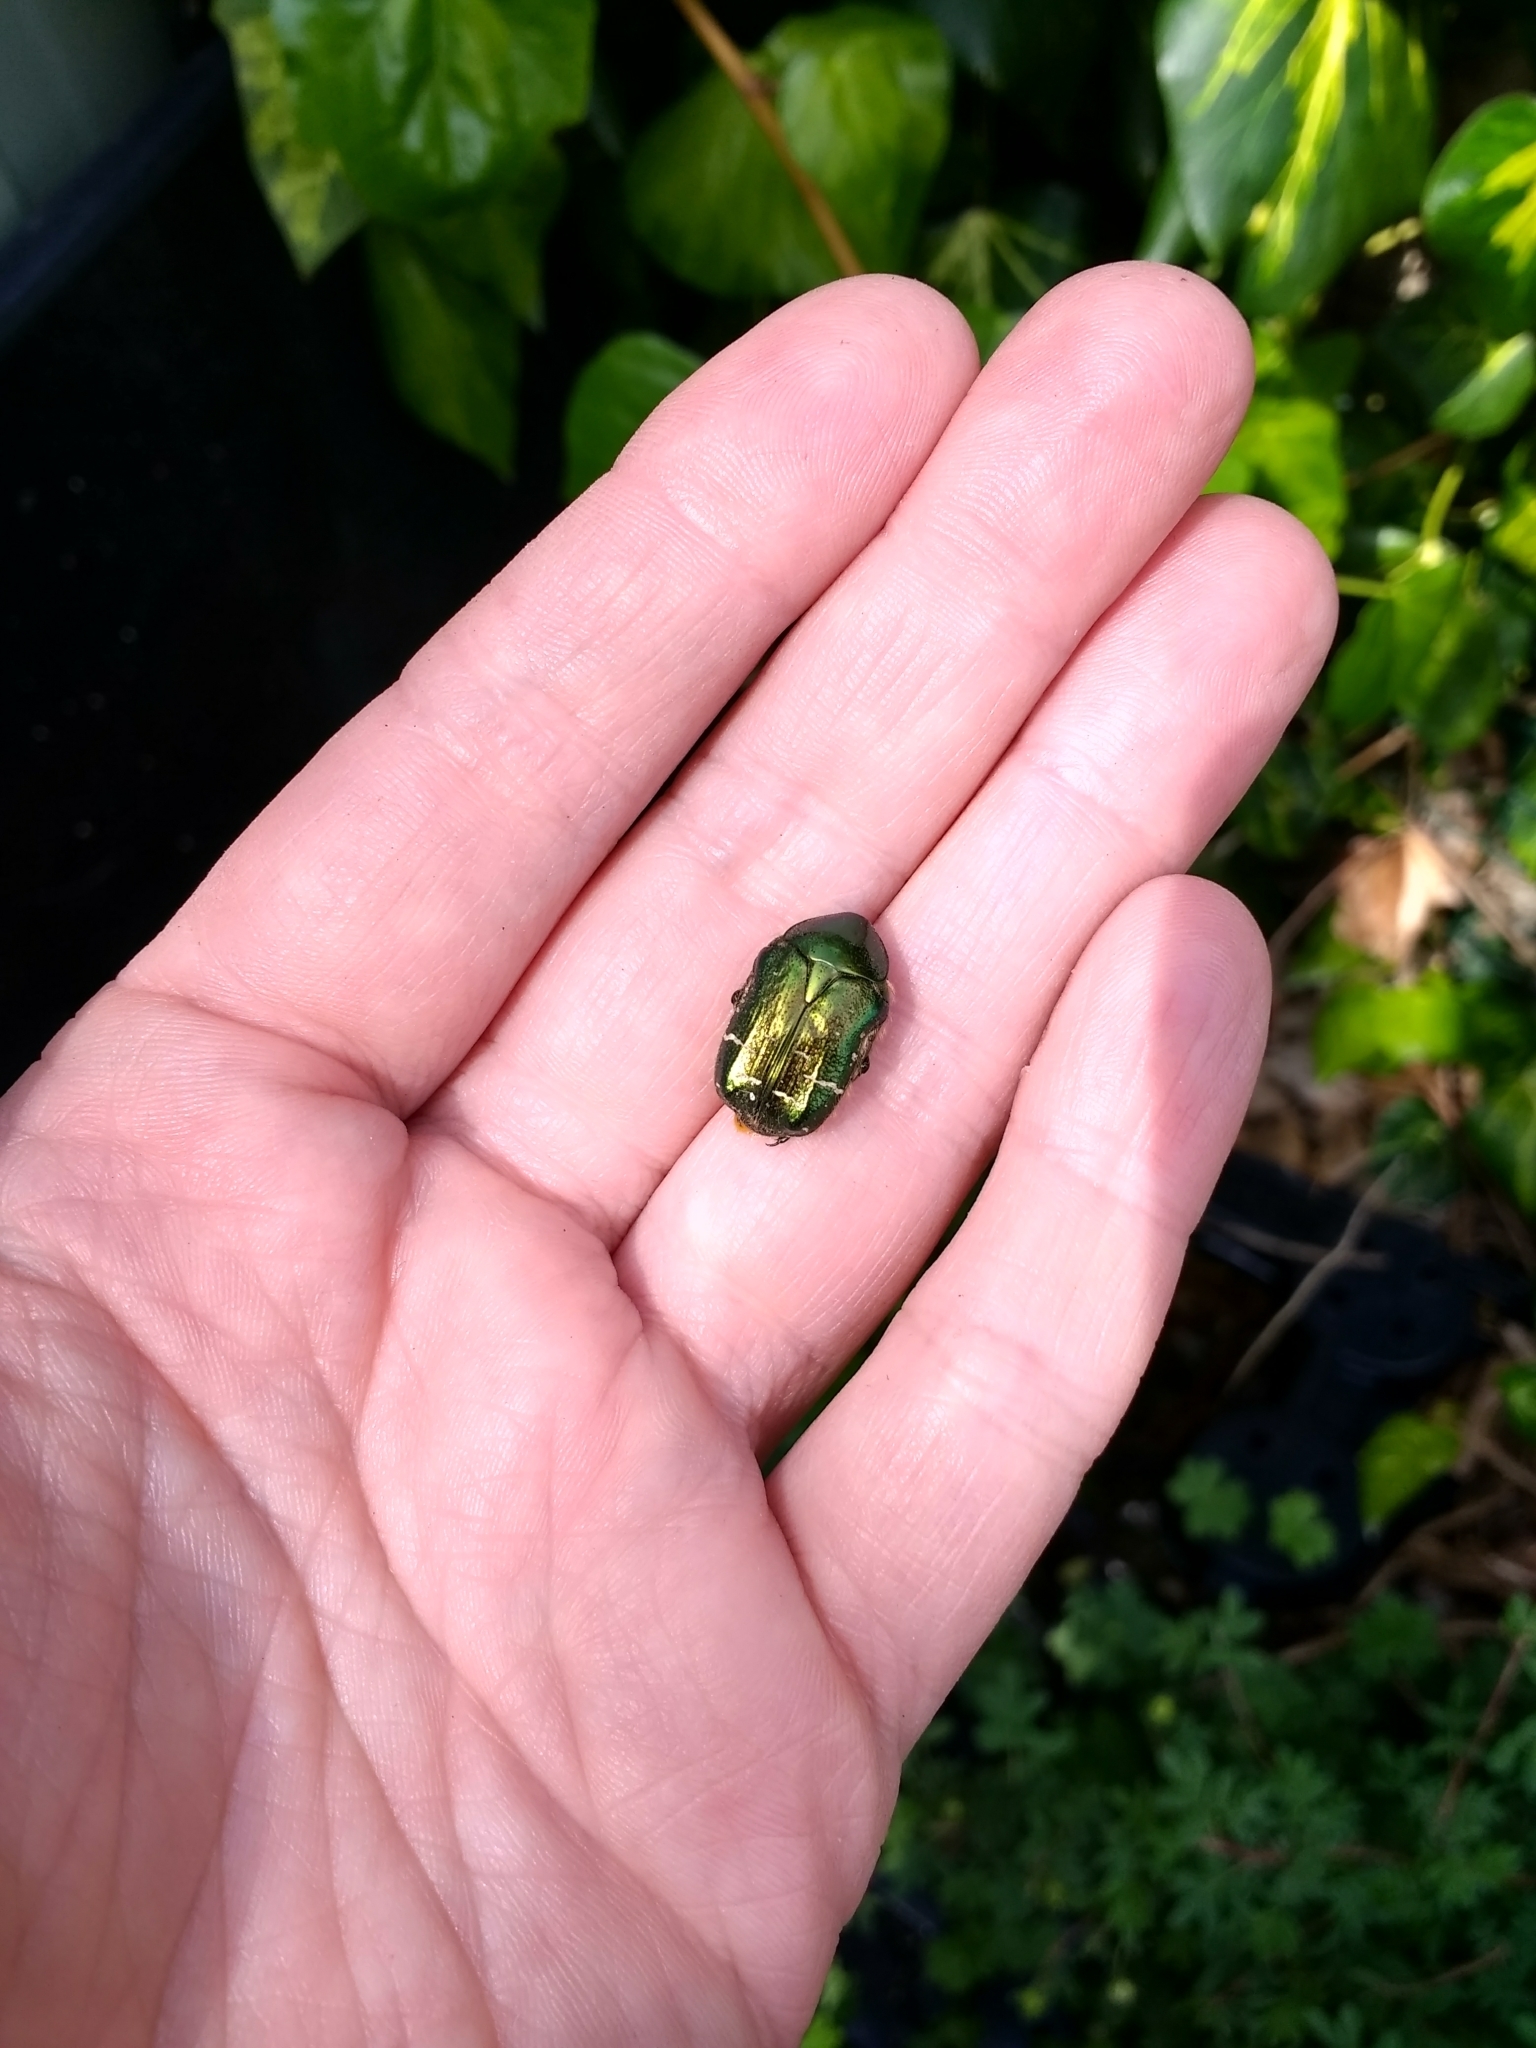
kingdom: Animalia
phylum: Arthropoda
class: Insecta
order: Coleoptera
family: Scarabaeidae
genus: Cetonia
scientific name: Cetonia aurata
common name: Rose chafer
